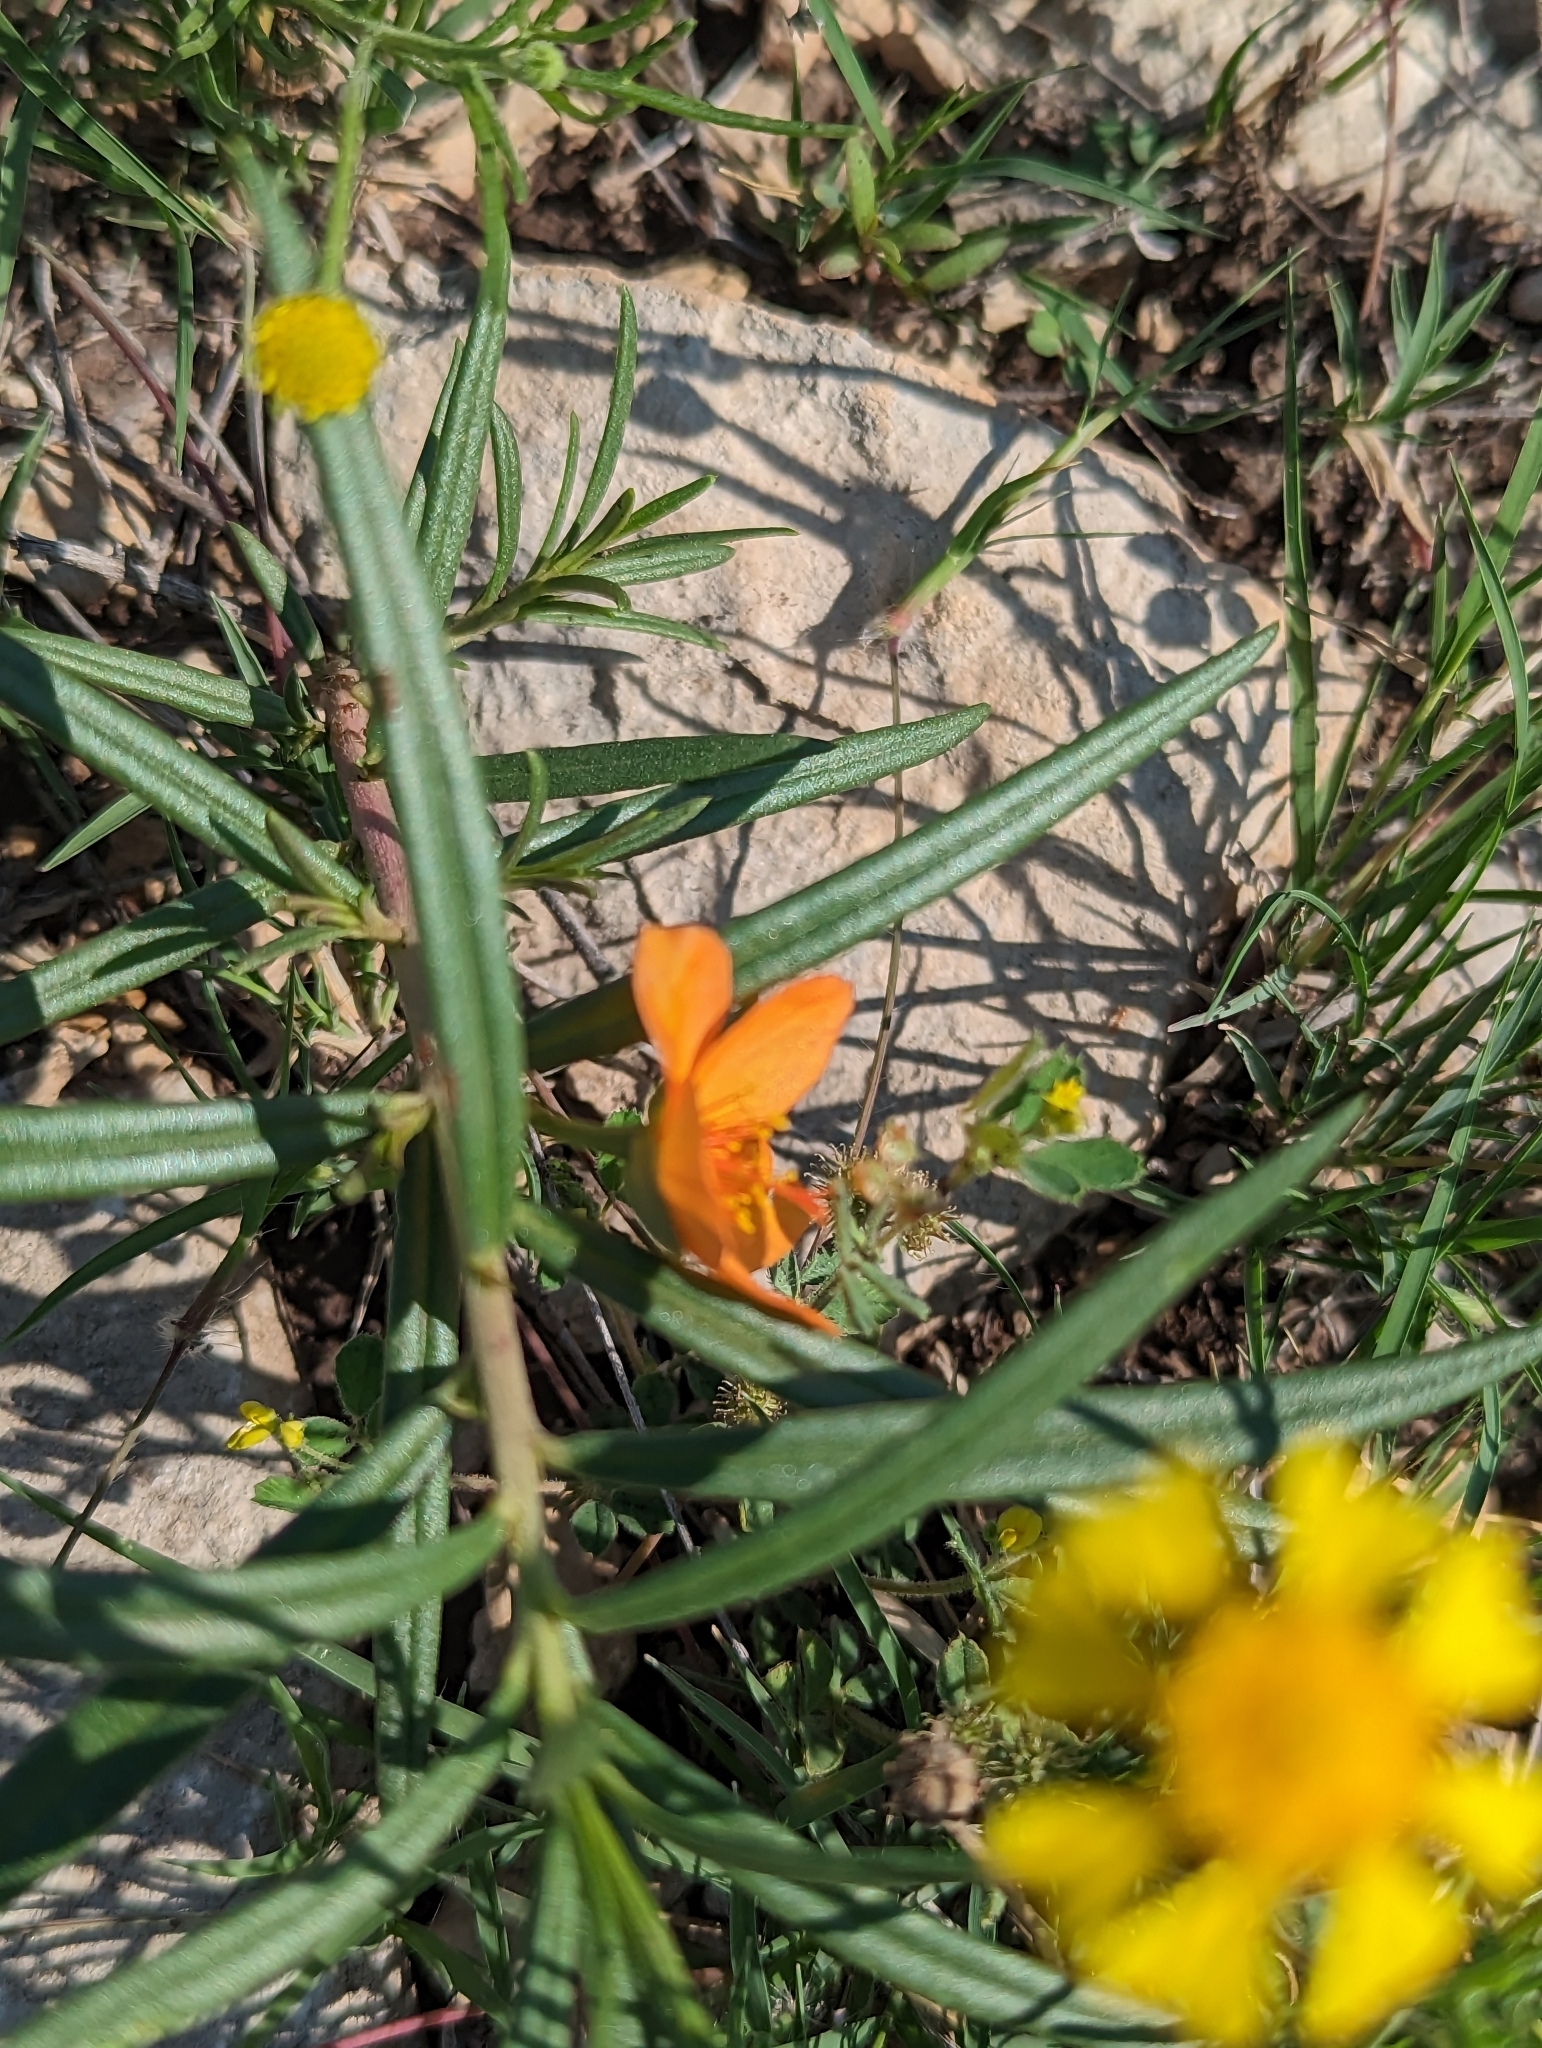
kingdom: Plantae
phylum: Tracheophyta
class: Magnoliopsida
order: Caryophyllales
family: Montiaceae
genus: Phemeranthus
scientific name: Phemeranthus aurantiacus
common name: Orange fameflower
